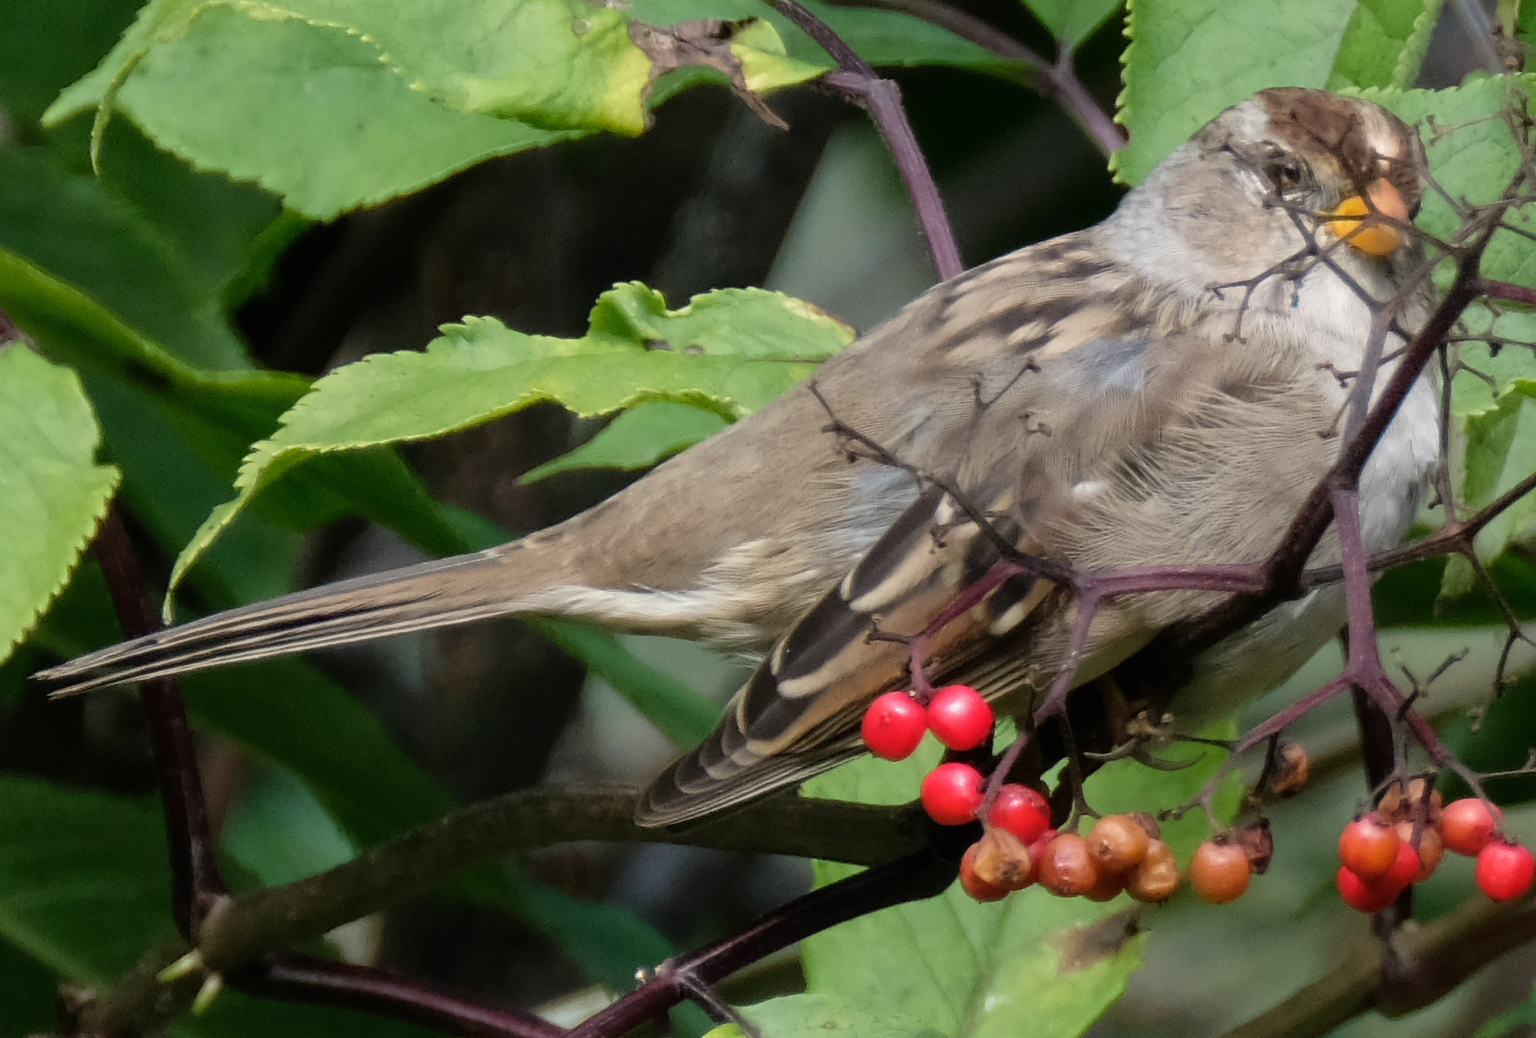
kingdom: Animalia
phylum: Chordata
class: Aves
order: Passeriformes
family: Passerellidae
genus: Zonotrichia
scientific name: Zonotrichia leucophrys
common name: White-crowned sparrow
